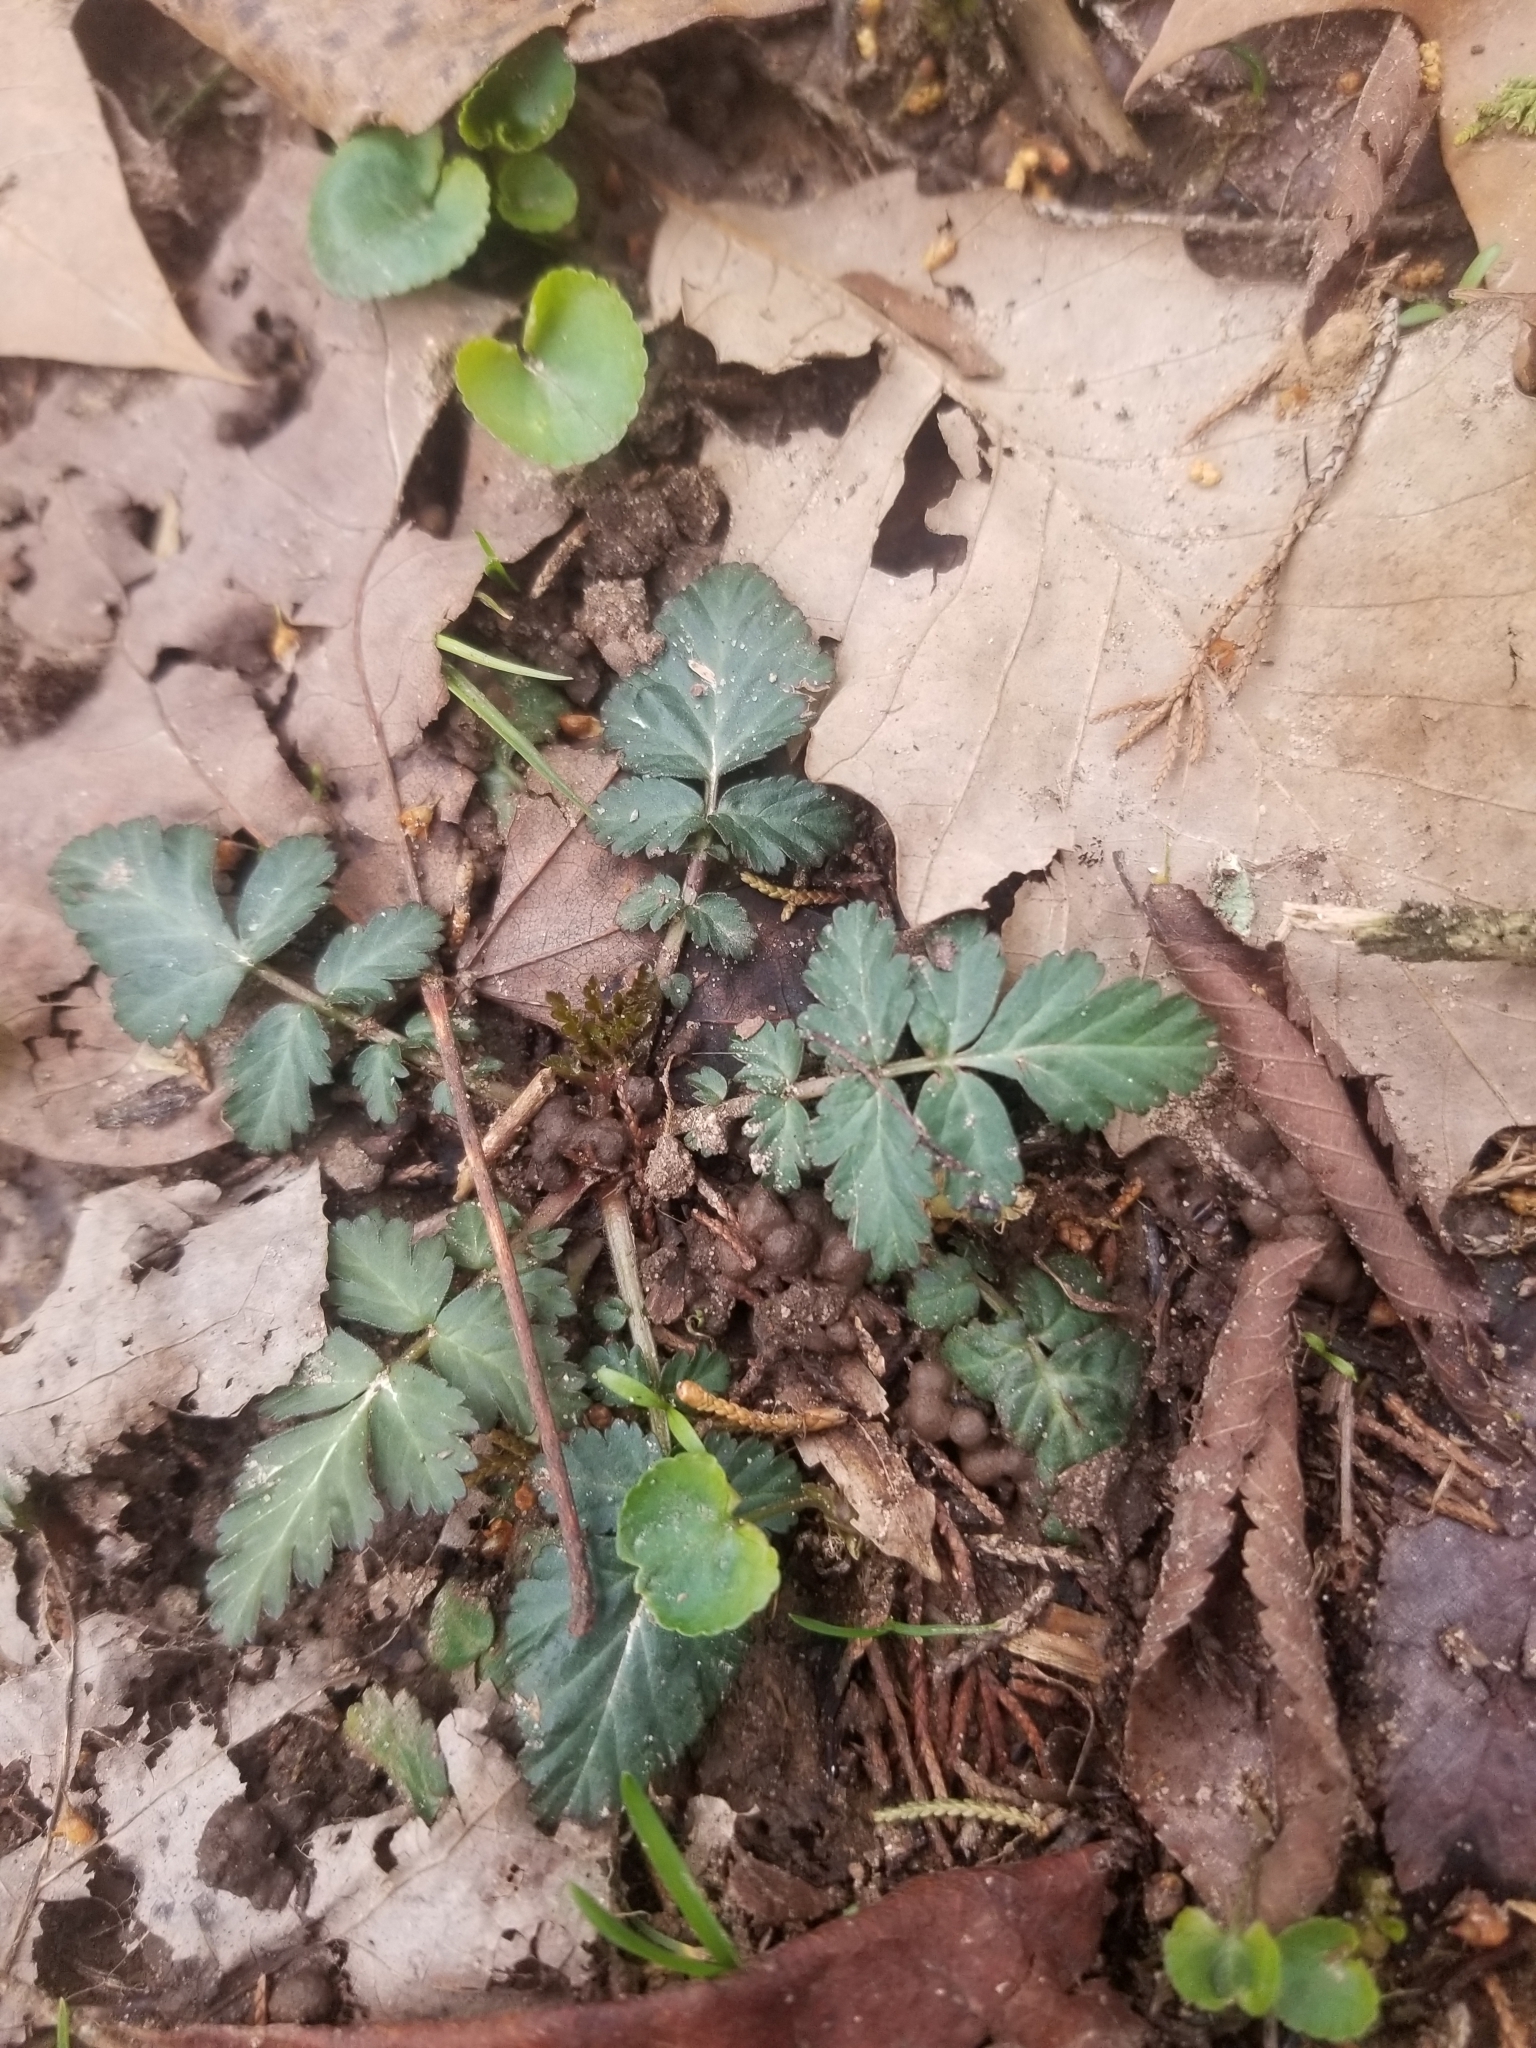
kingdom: Plantae
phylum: Tracheophyta
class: Magnoliopsida
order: Rosales
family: Rosaceae
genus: Geum
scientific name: Geum canadense
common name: White avens
